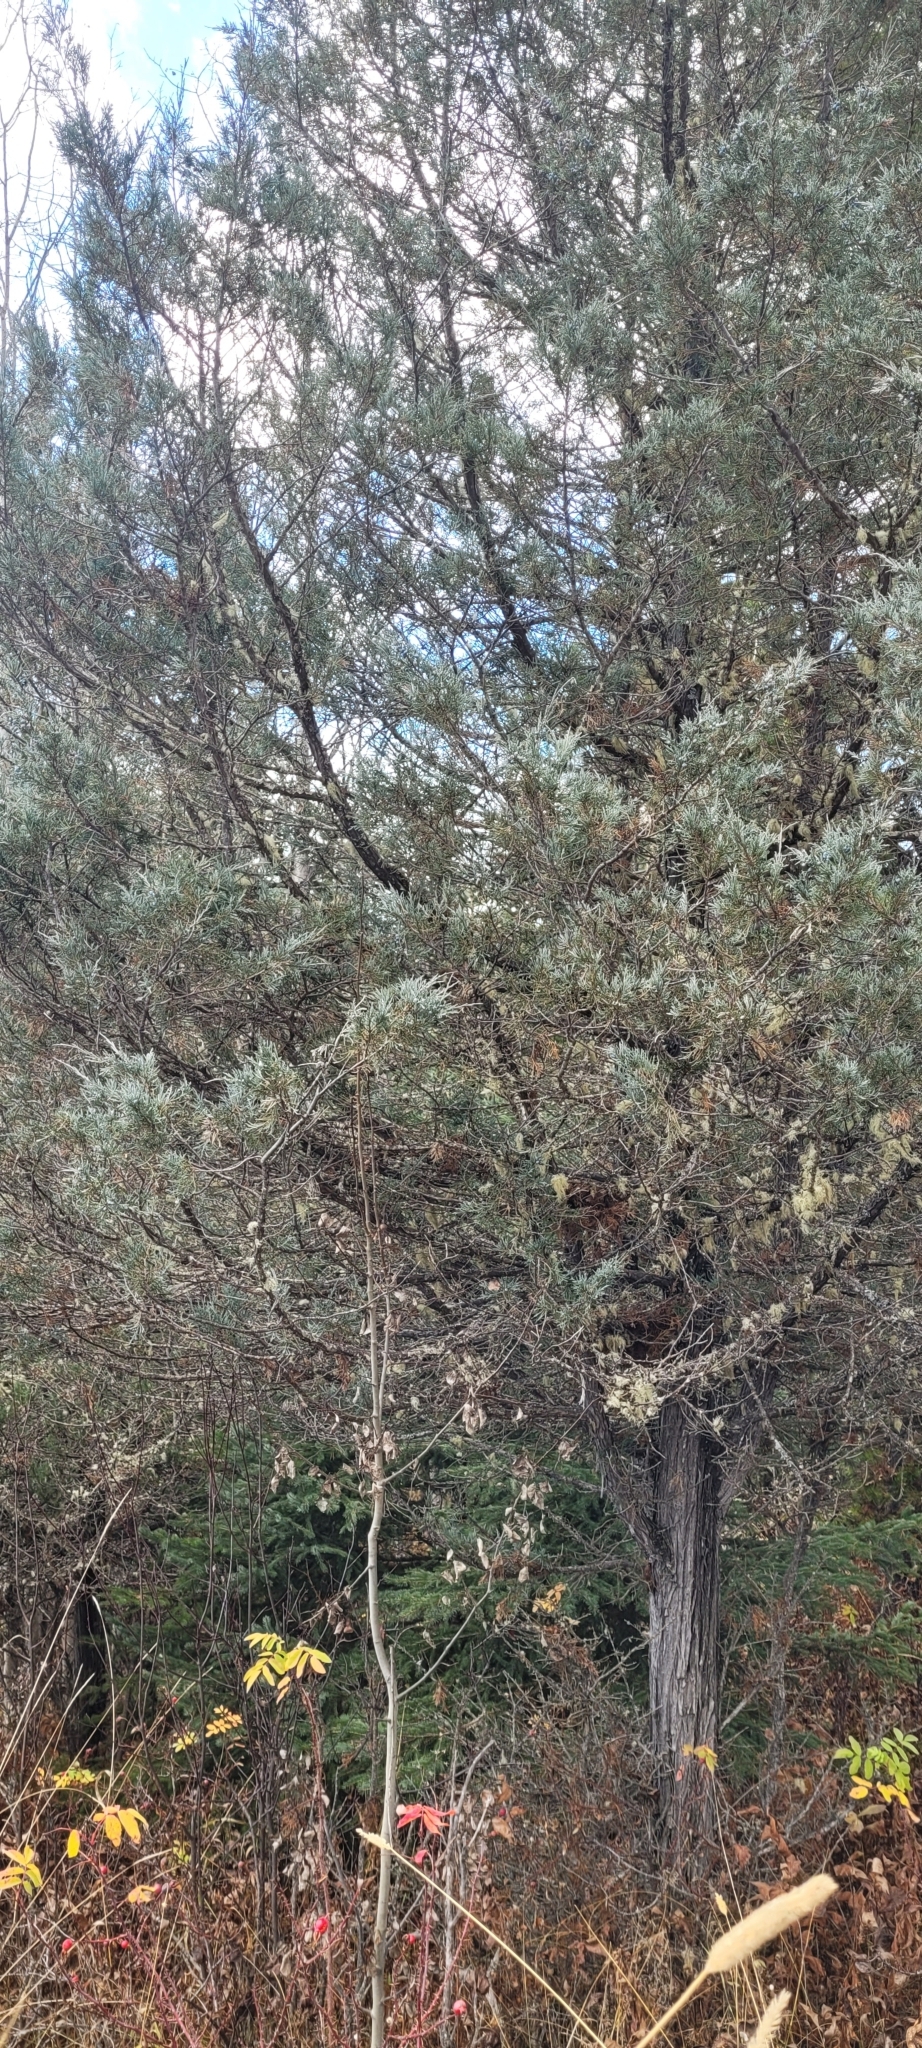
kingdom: Plantae
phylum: Tracheophyta
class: Pinopsida
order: Pinales
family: Cupressaceae
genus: Juniperus
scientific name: Juniperus scopulorum
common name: Rocky mountain juniper
